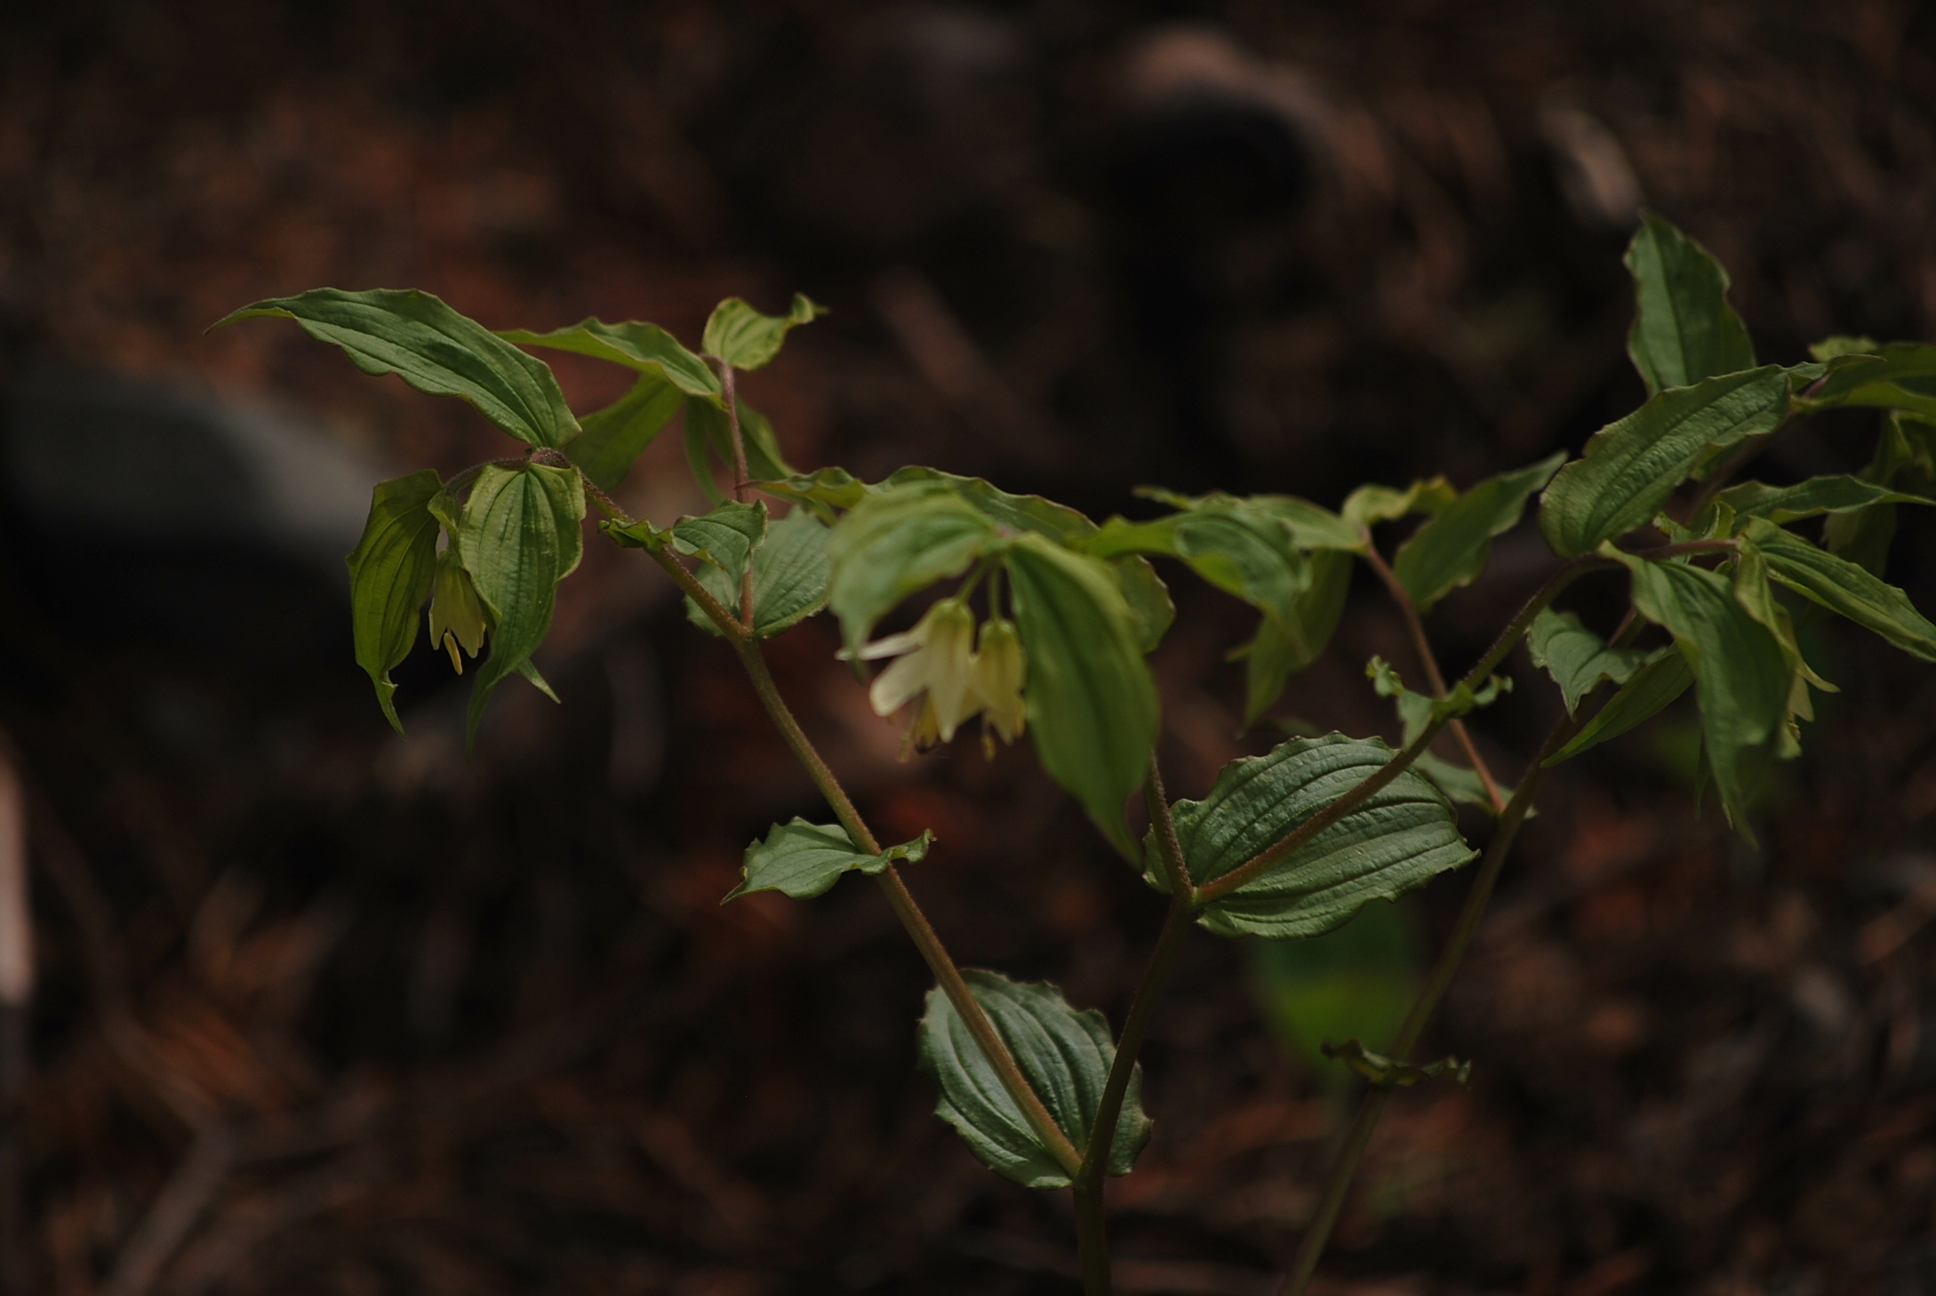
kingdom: Plantae
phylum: Tracheophyta
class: Liliopsida
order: Liliales
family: Liliaceae
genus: Prosartes
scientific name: Prosartes hookeri
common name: Fairy-bells
